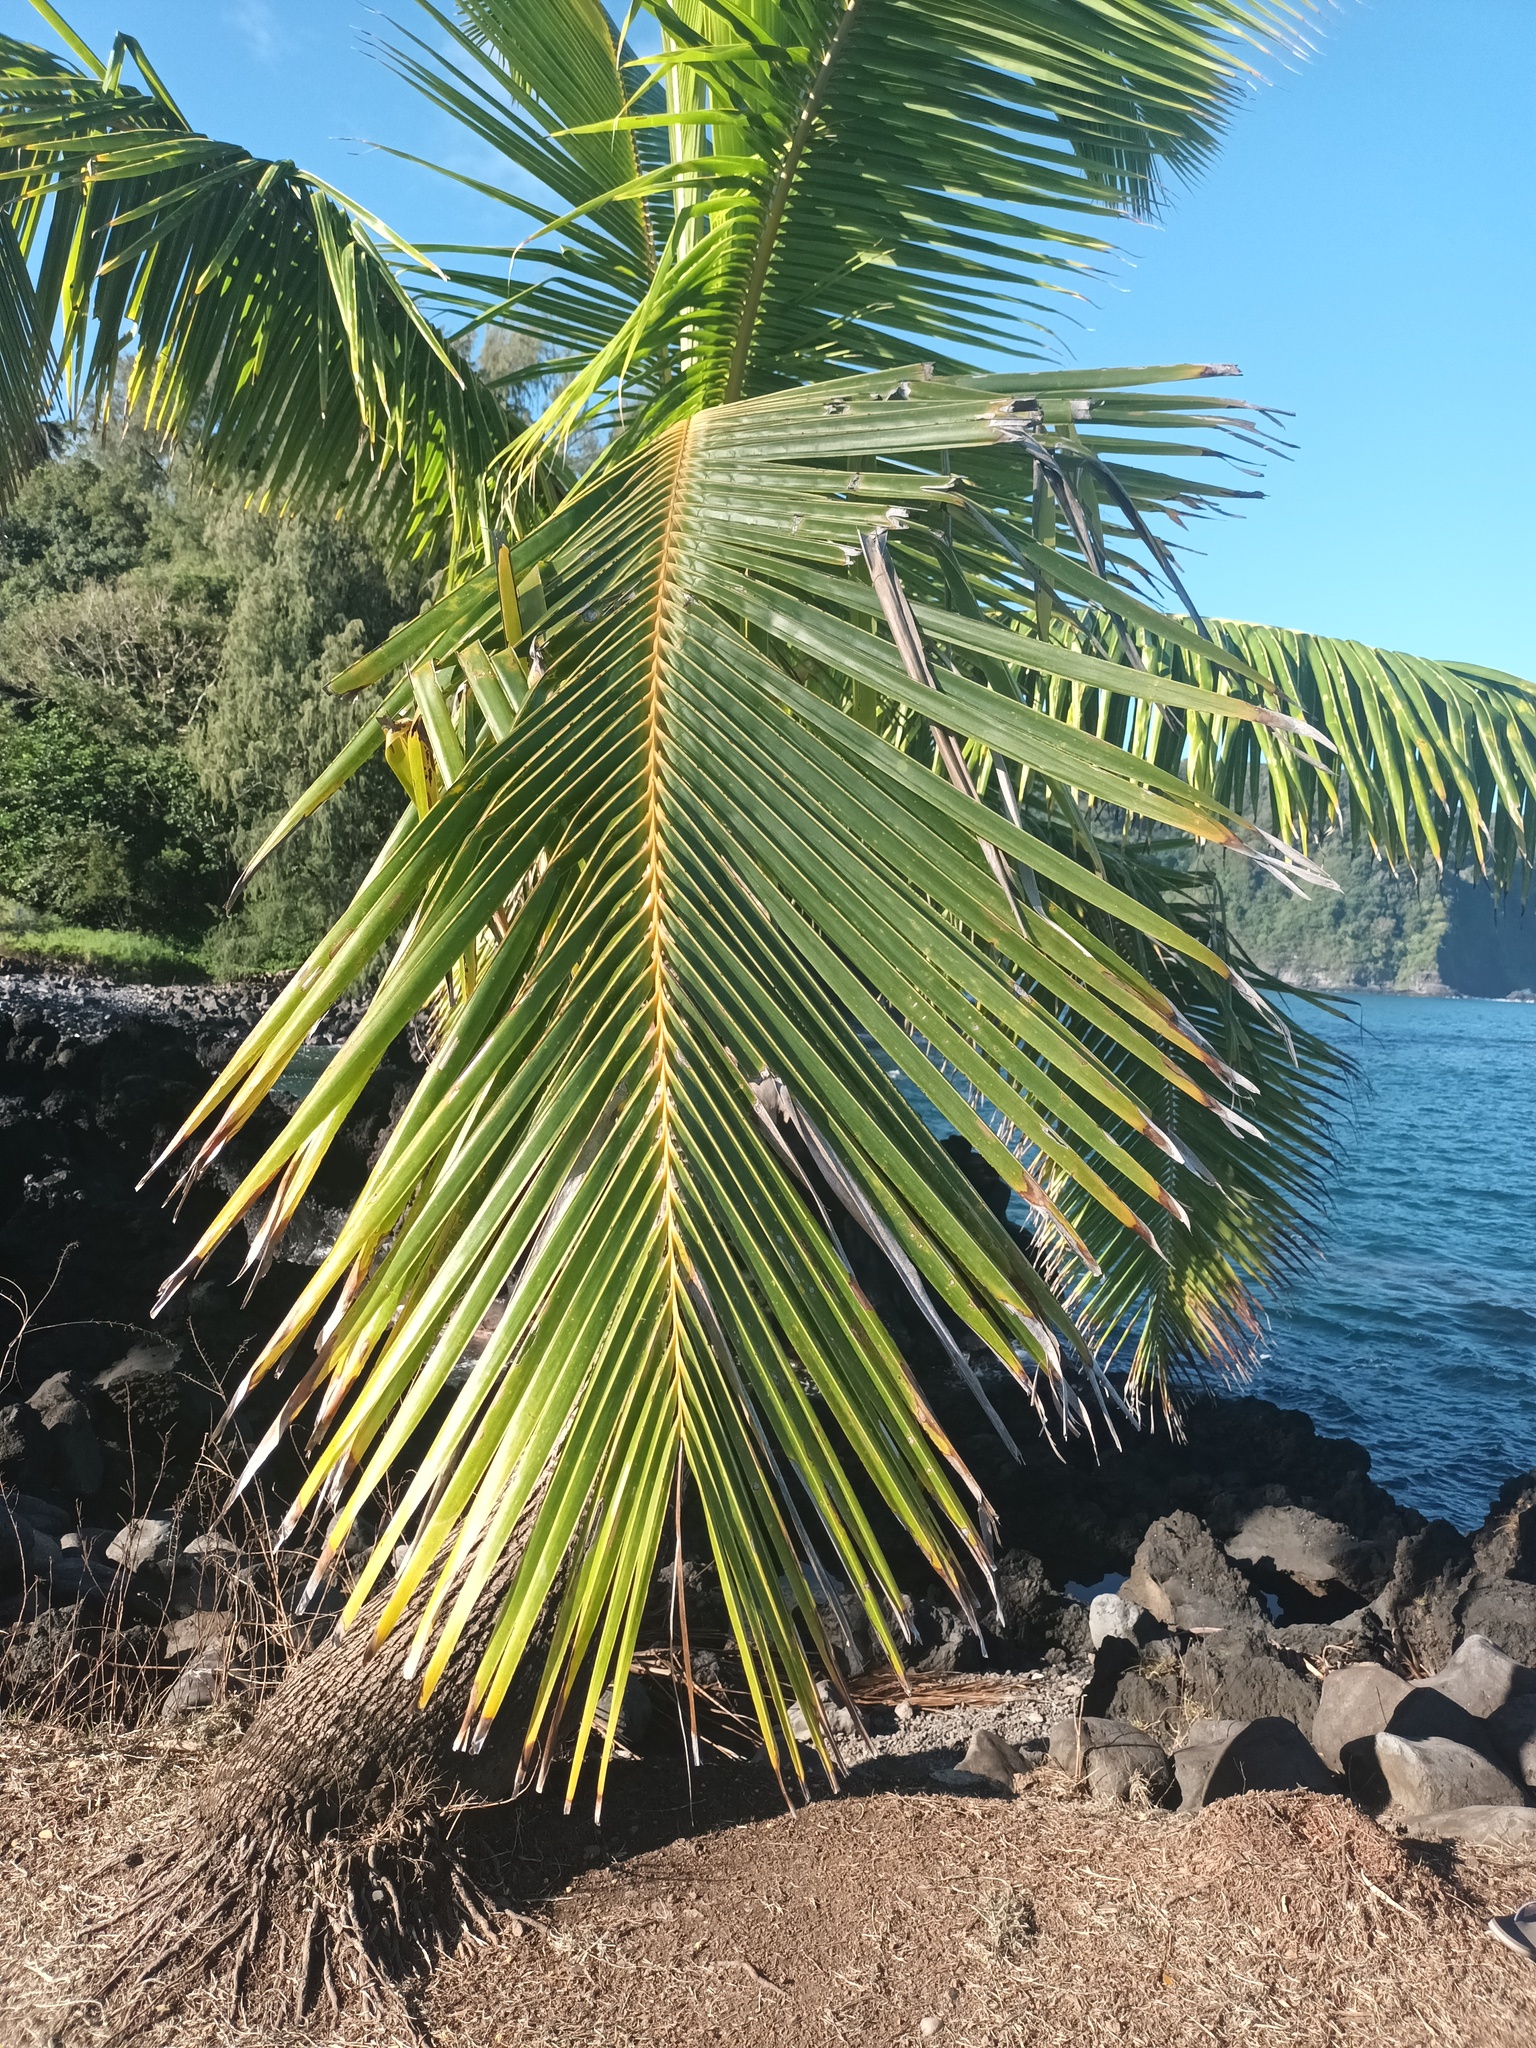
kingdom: Plantae
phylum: Tracheophyta
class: Liliopsida
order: Arecales
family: Arecaceae
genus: Cocos
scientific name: Cocos nucifera
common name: Coconut palm
